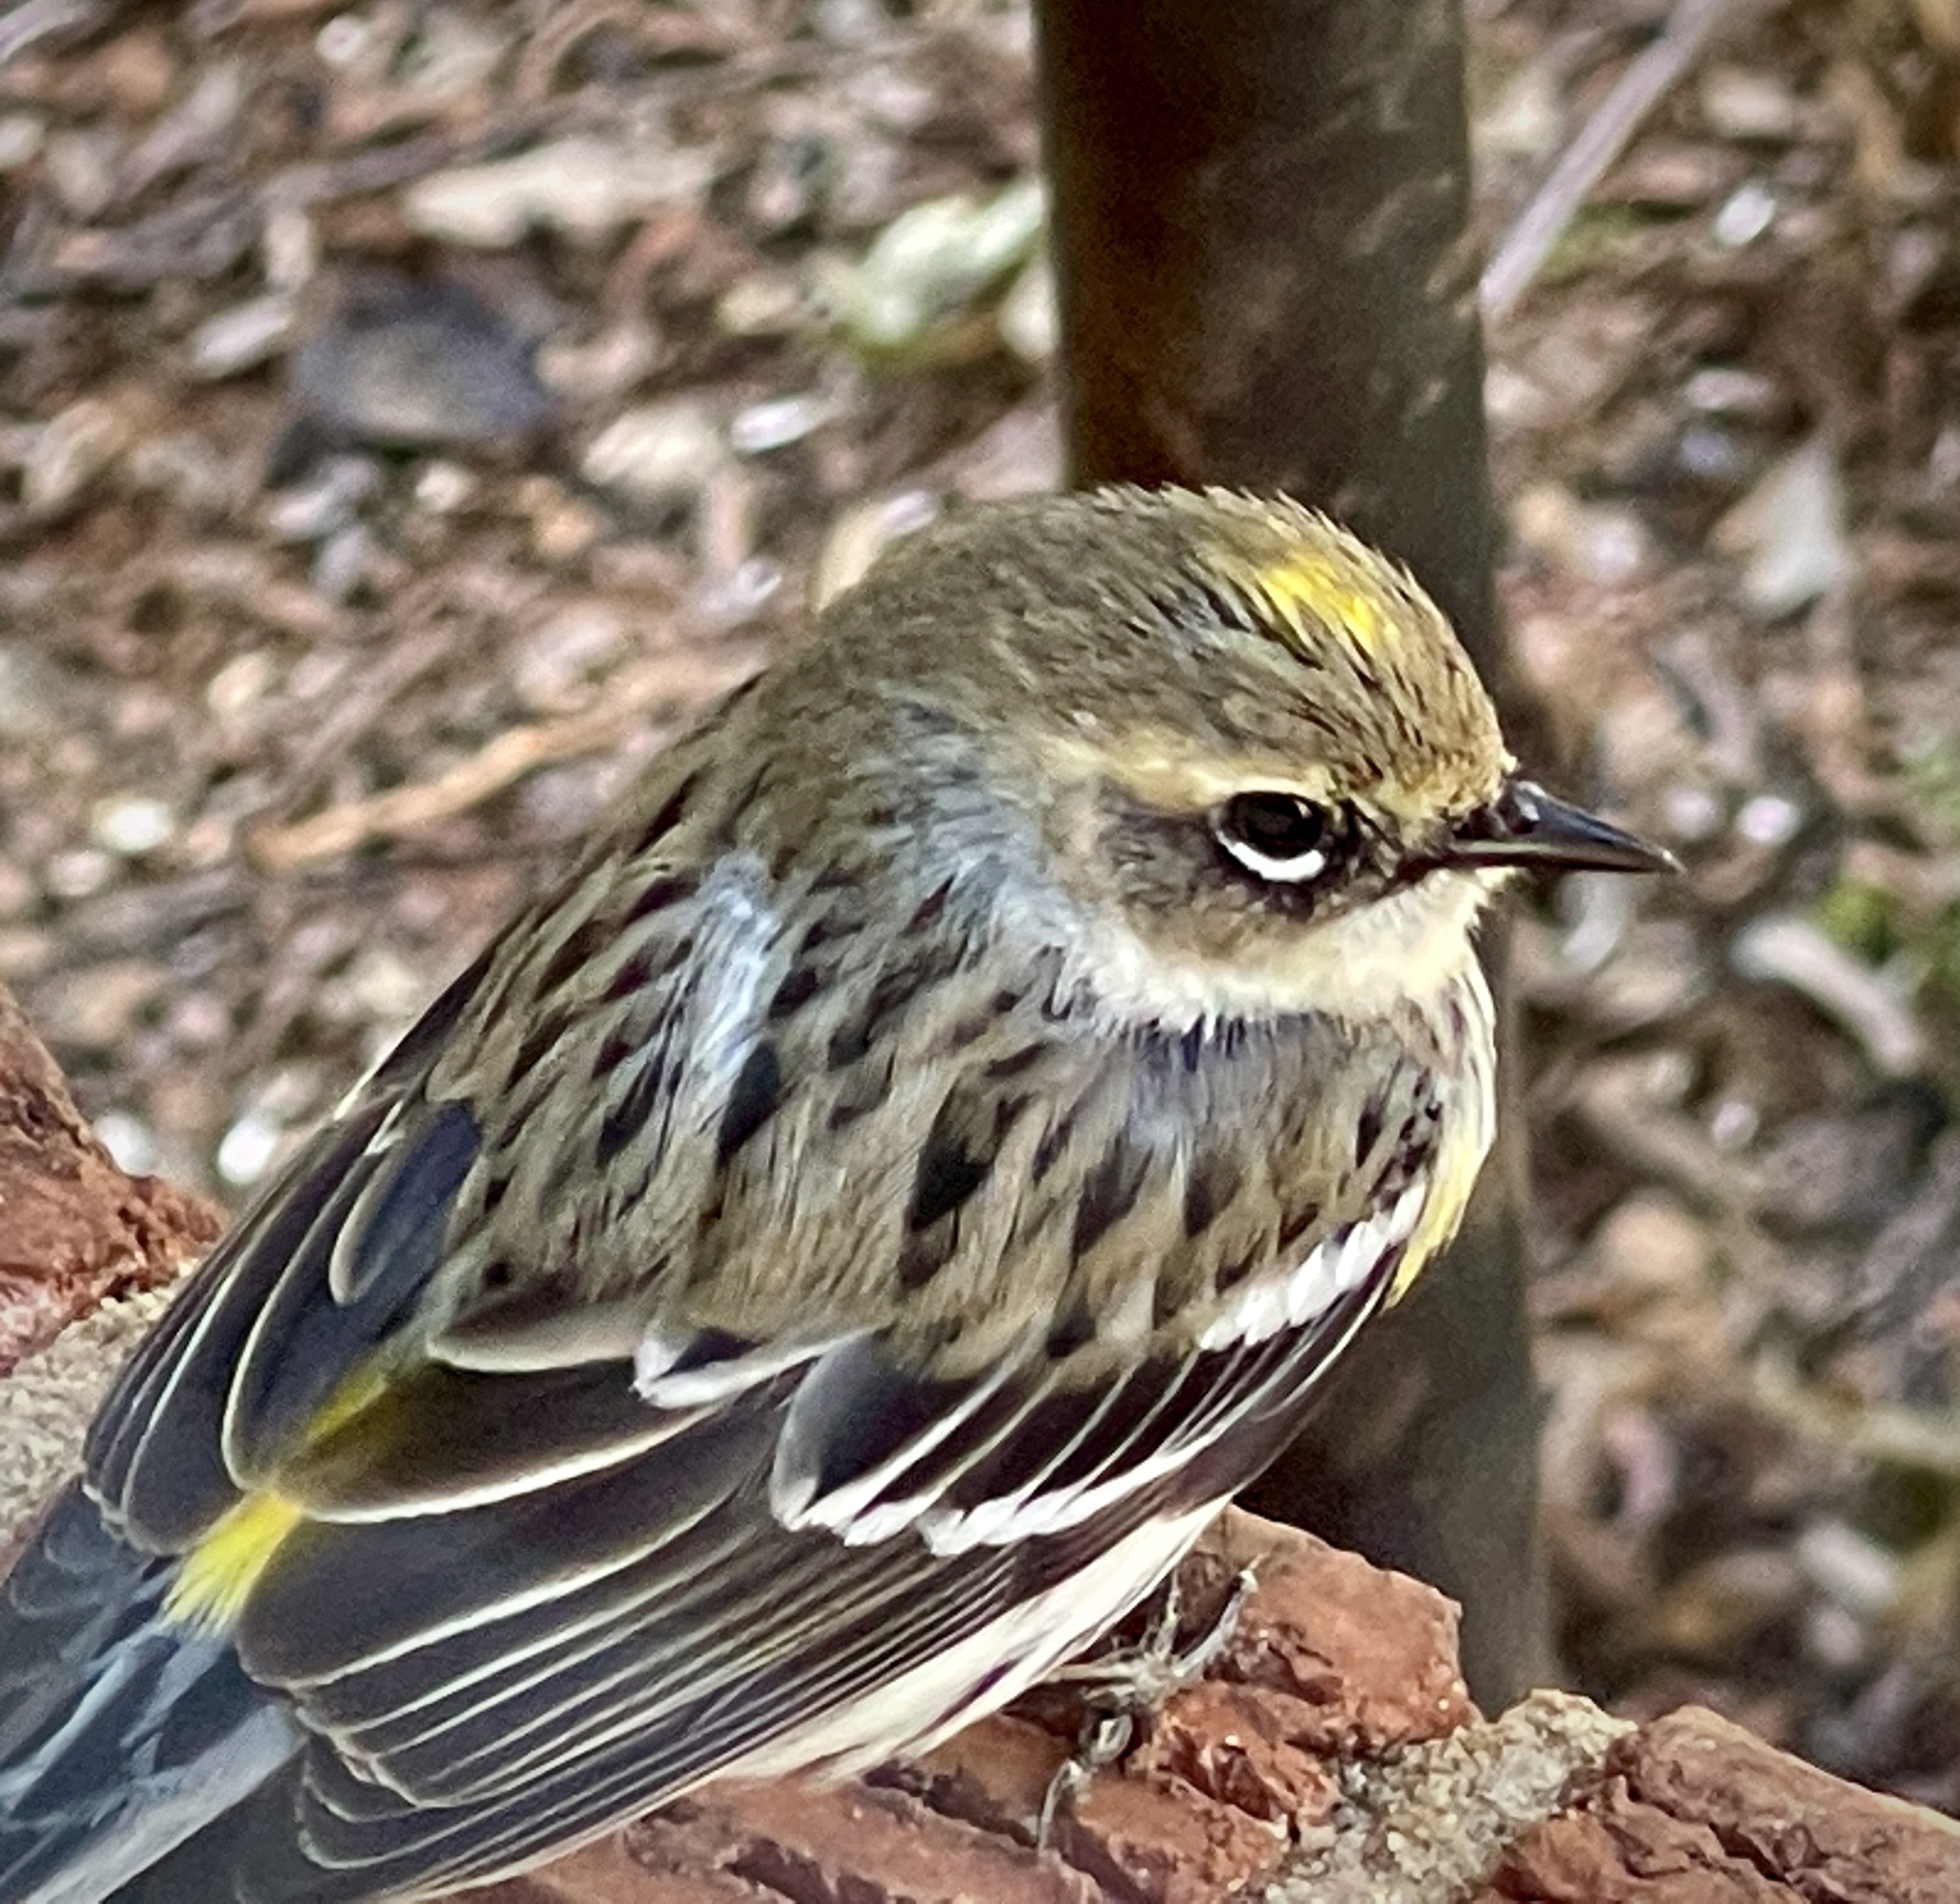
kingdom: Animalia
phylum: Chordata
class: Aves
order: Passeriformes
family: Parulidae
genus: Setophaga
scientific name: Setophaga coronata
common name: Myrtle warbler
